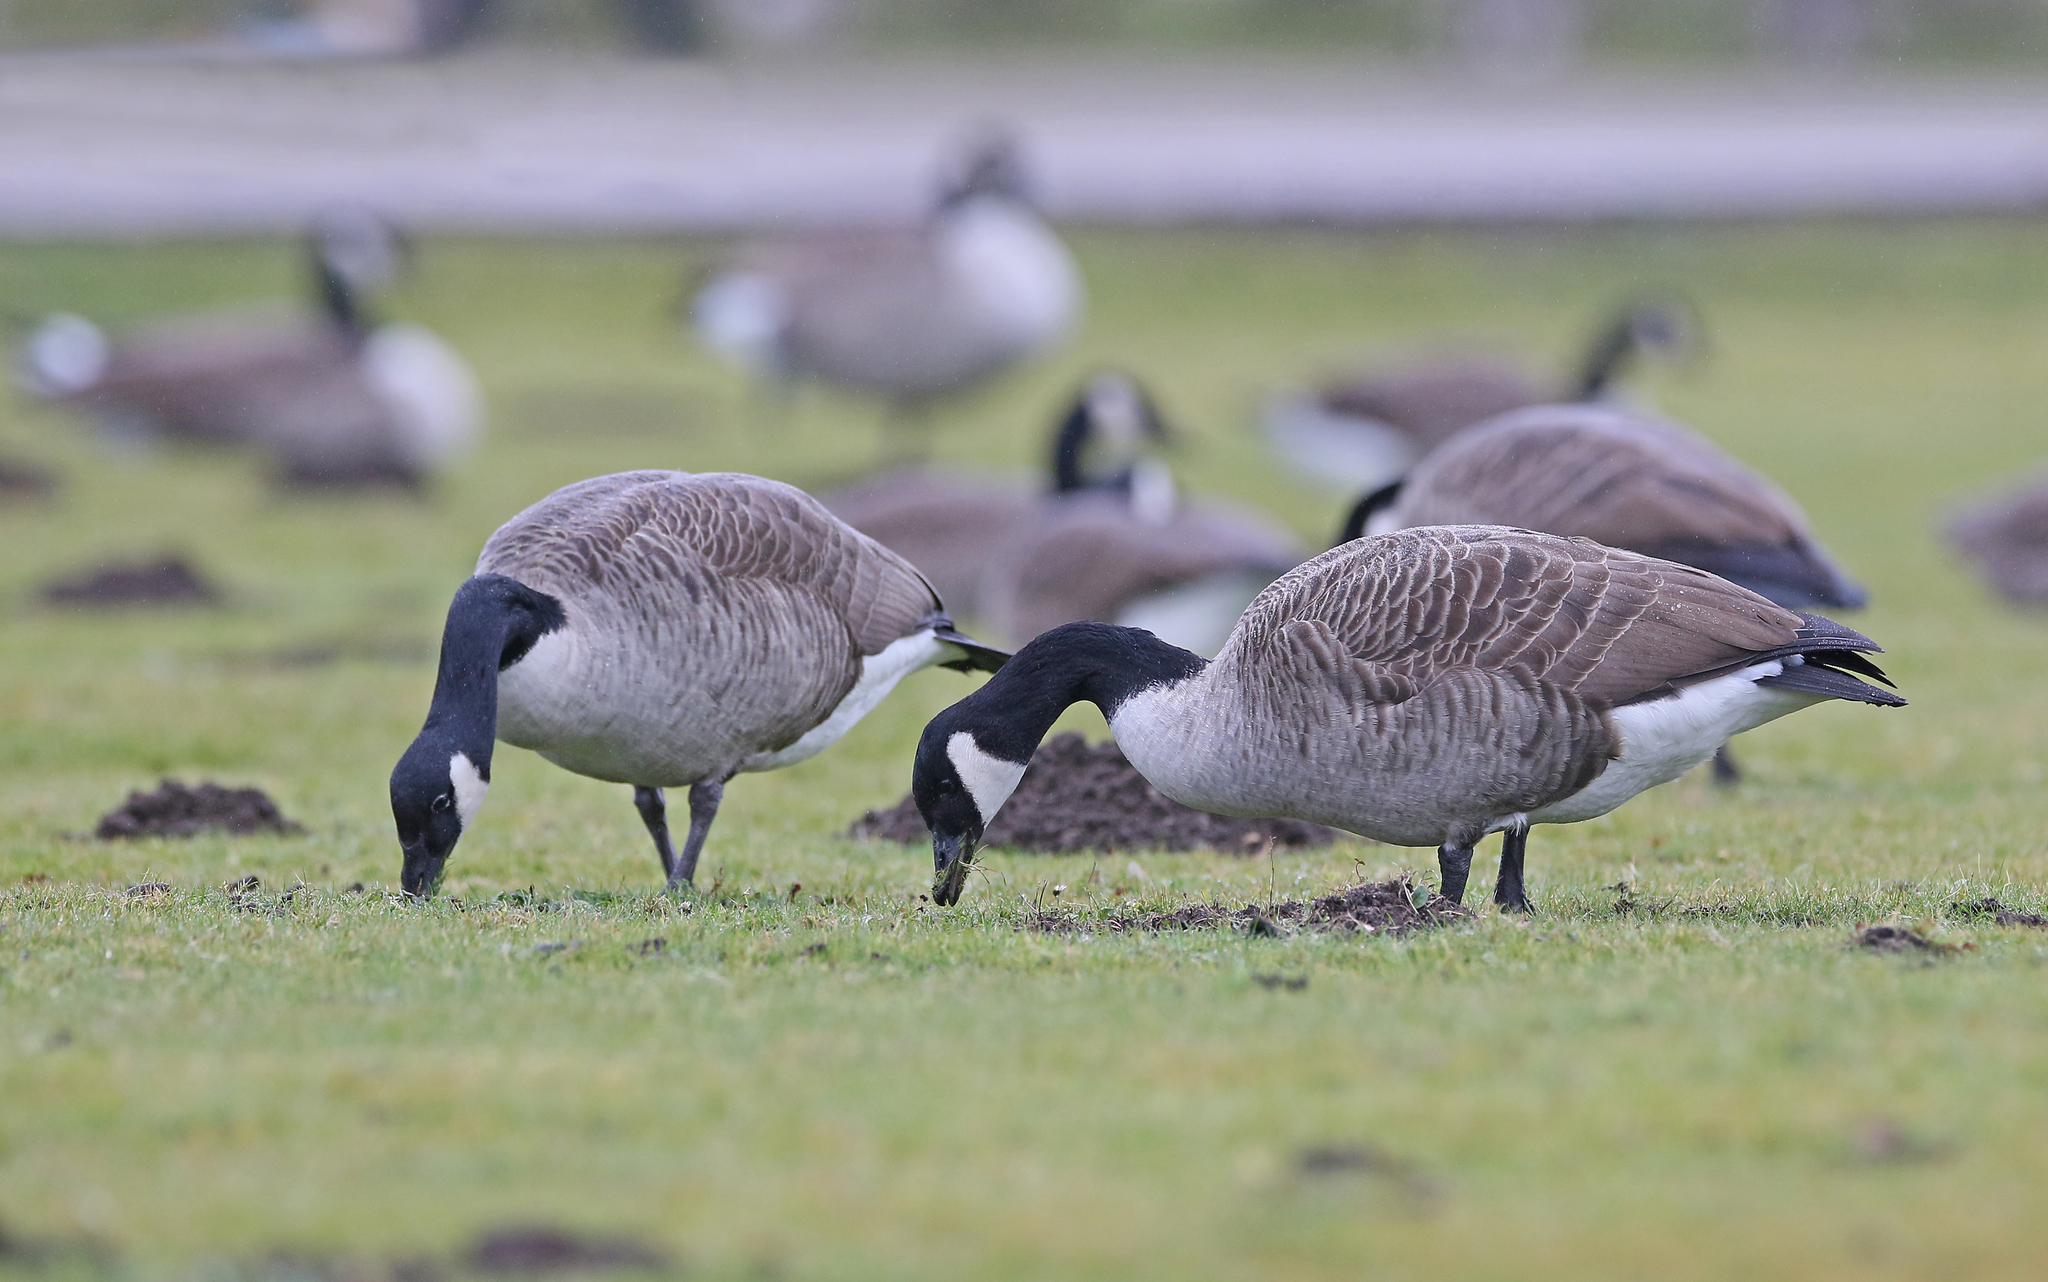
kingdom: Animalia
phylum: Chordata
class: Aves
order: Anseriformes
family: Anatidae
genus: Branta
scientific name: Branta canadensis
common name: Canada goose
